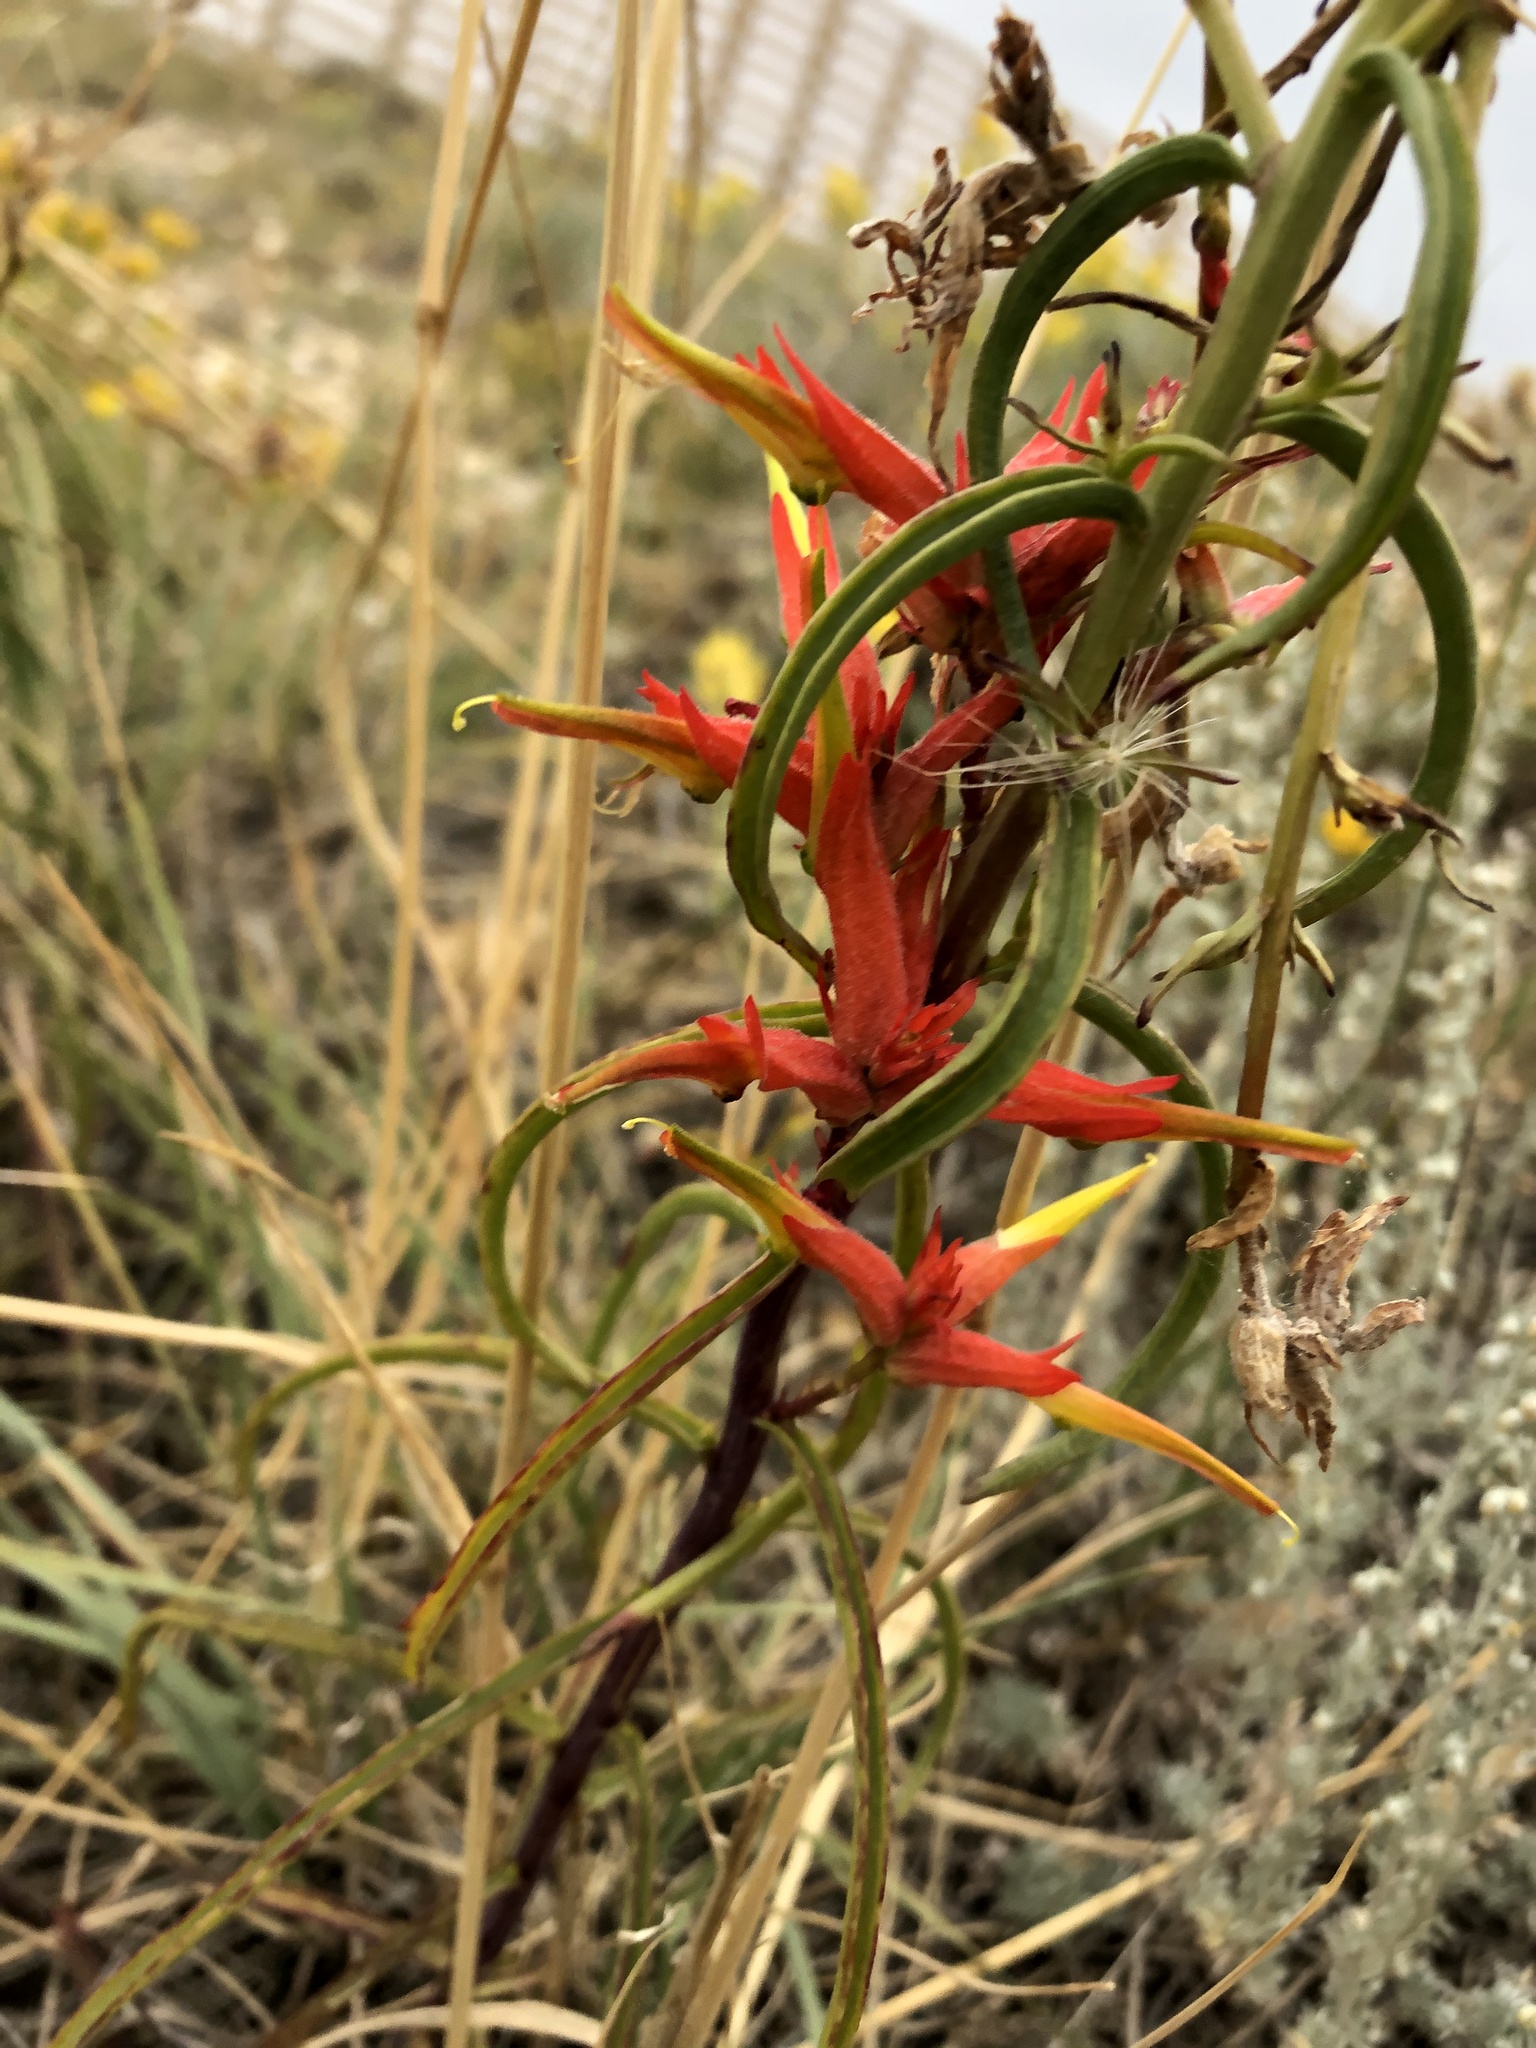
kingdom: Plantae
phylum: Tracheophyta
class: Magnoliopsida
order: Lamiales
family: Orobanchaceae
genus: Castilleja
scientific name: Castilleja linariifolia
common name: Wyoming paintbrush
